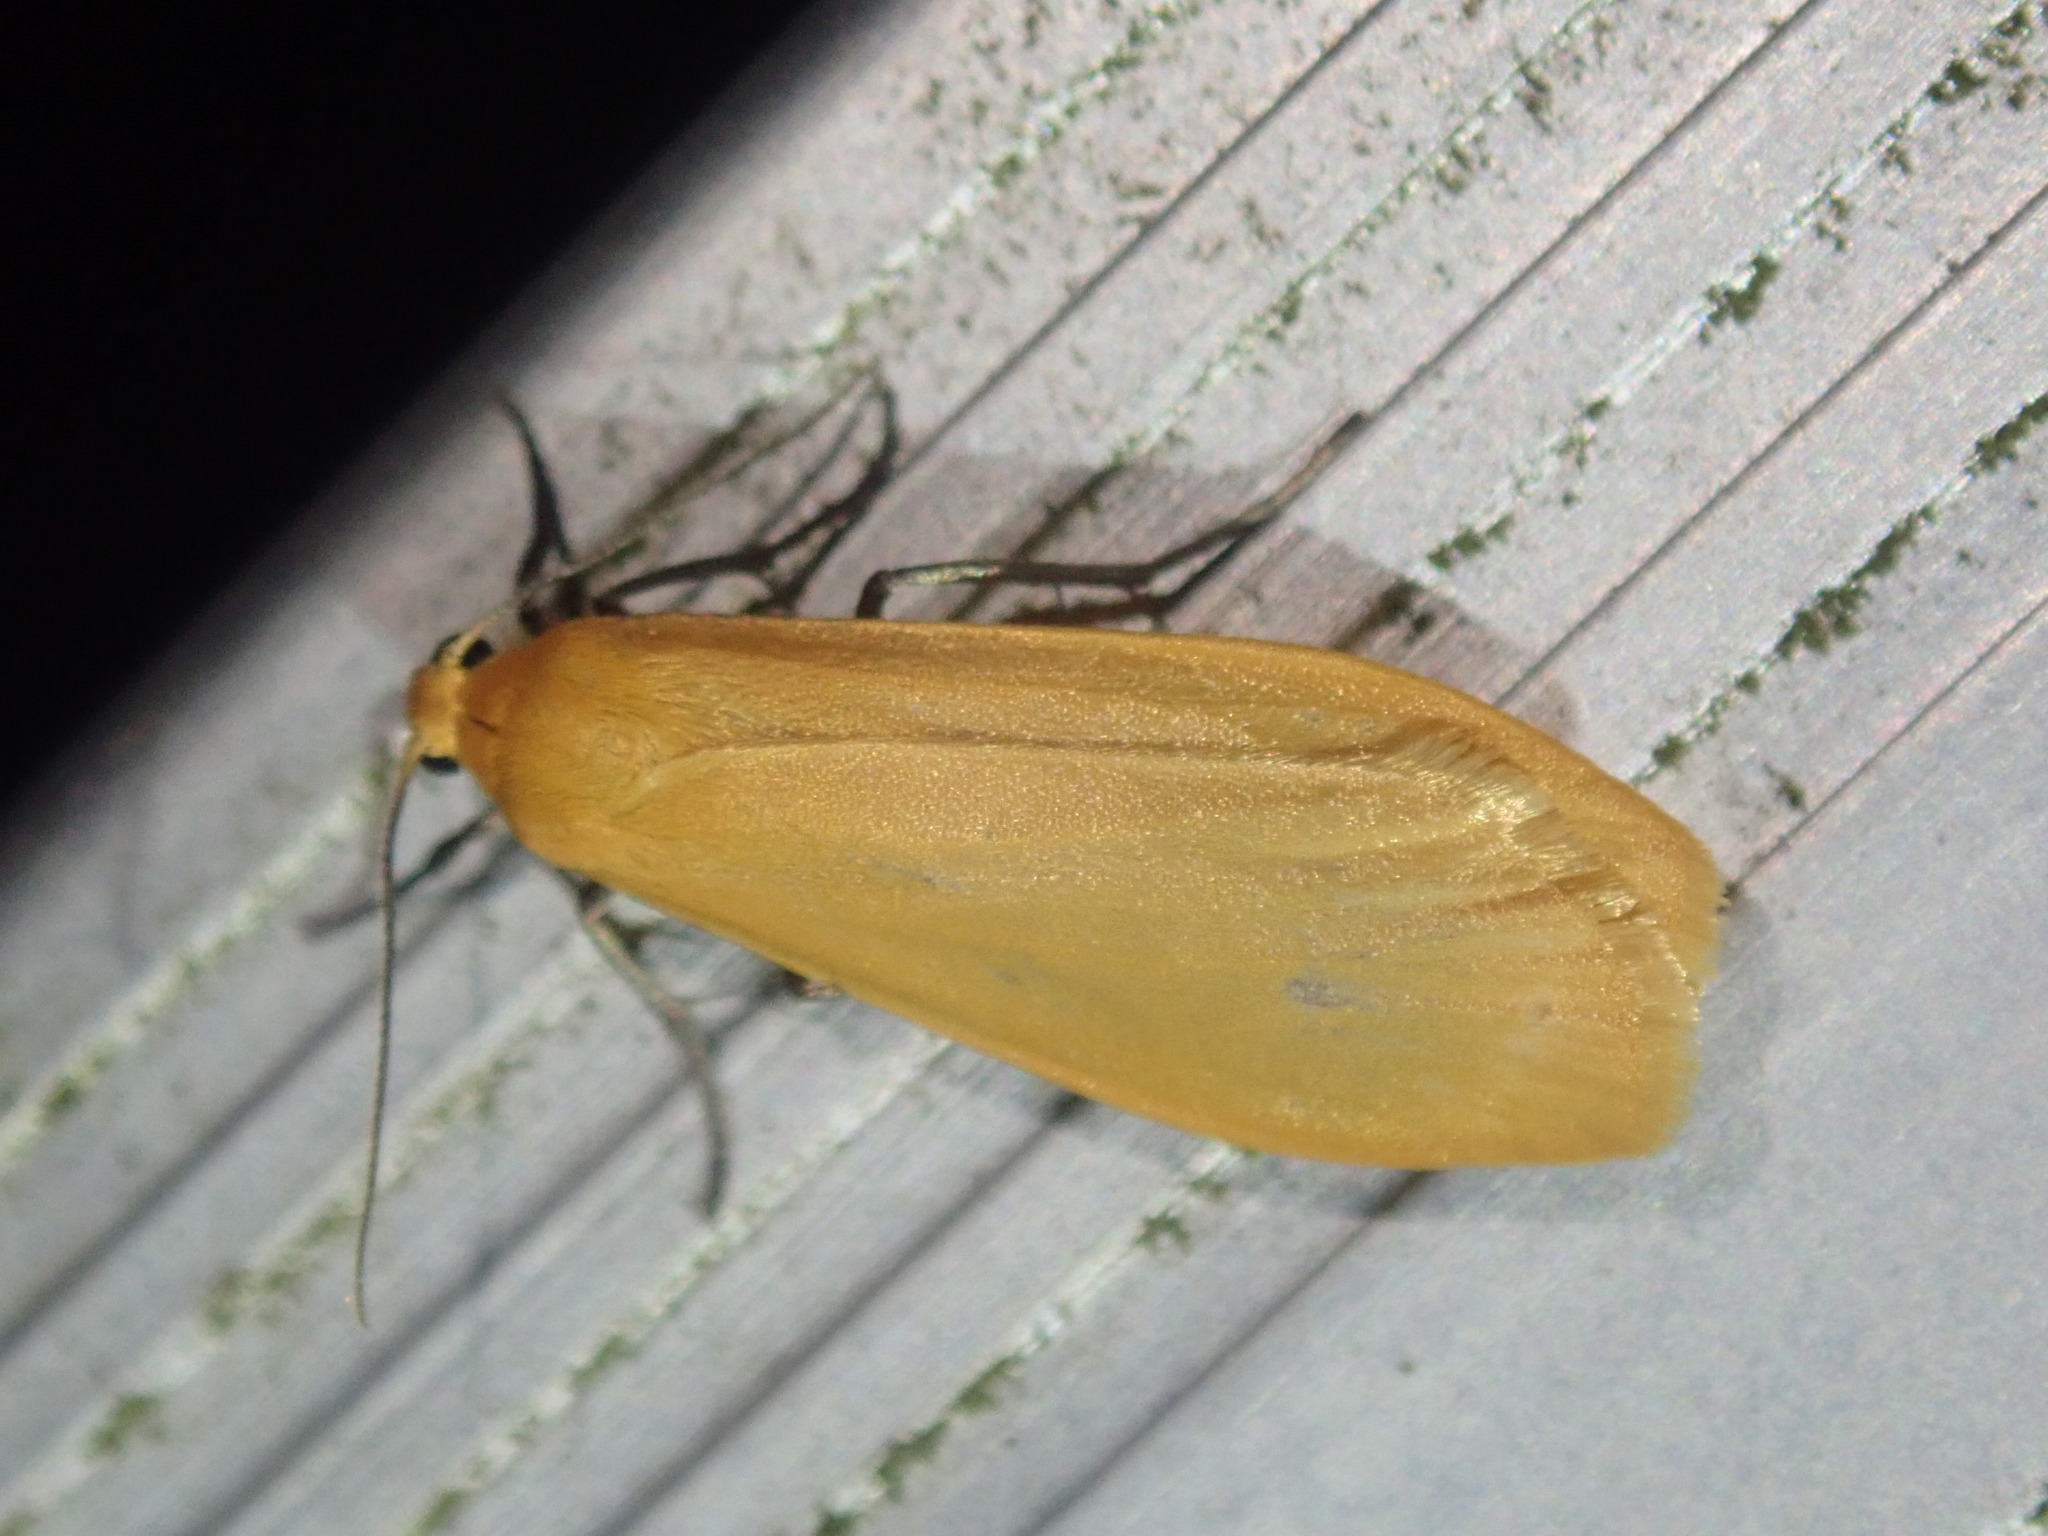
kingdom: Animalia
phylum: Arthropoda
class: Insecta
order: Lepidoptera
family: Erebidae
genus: Wittia
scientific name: Wittia sororcula
